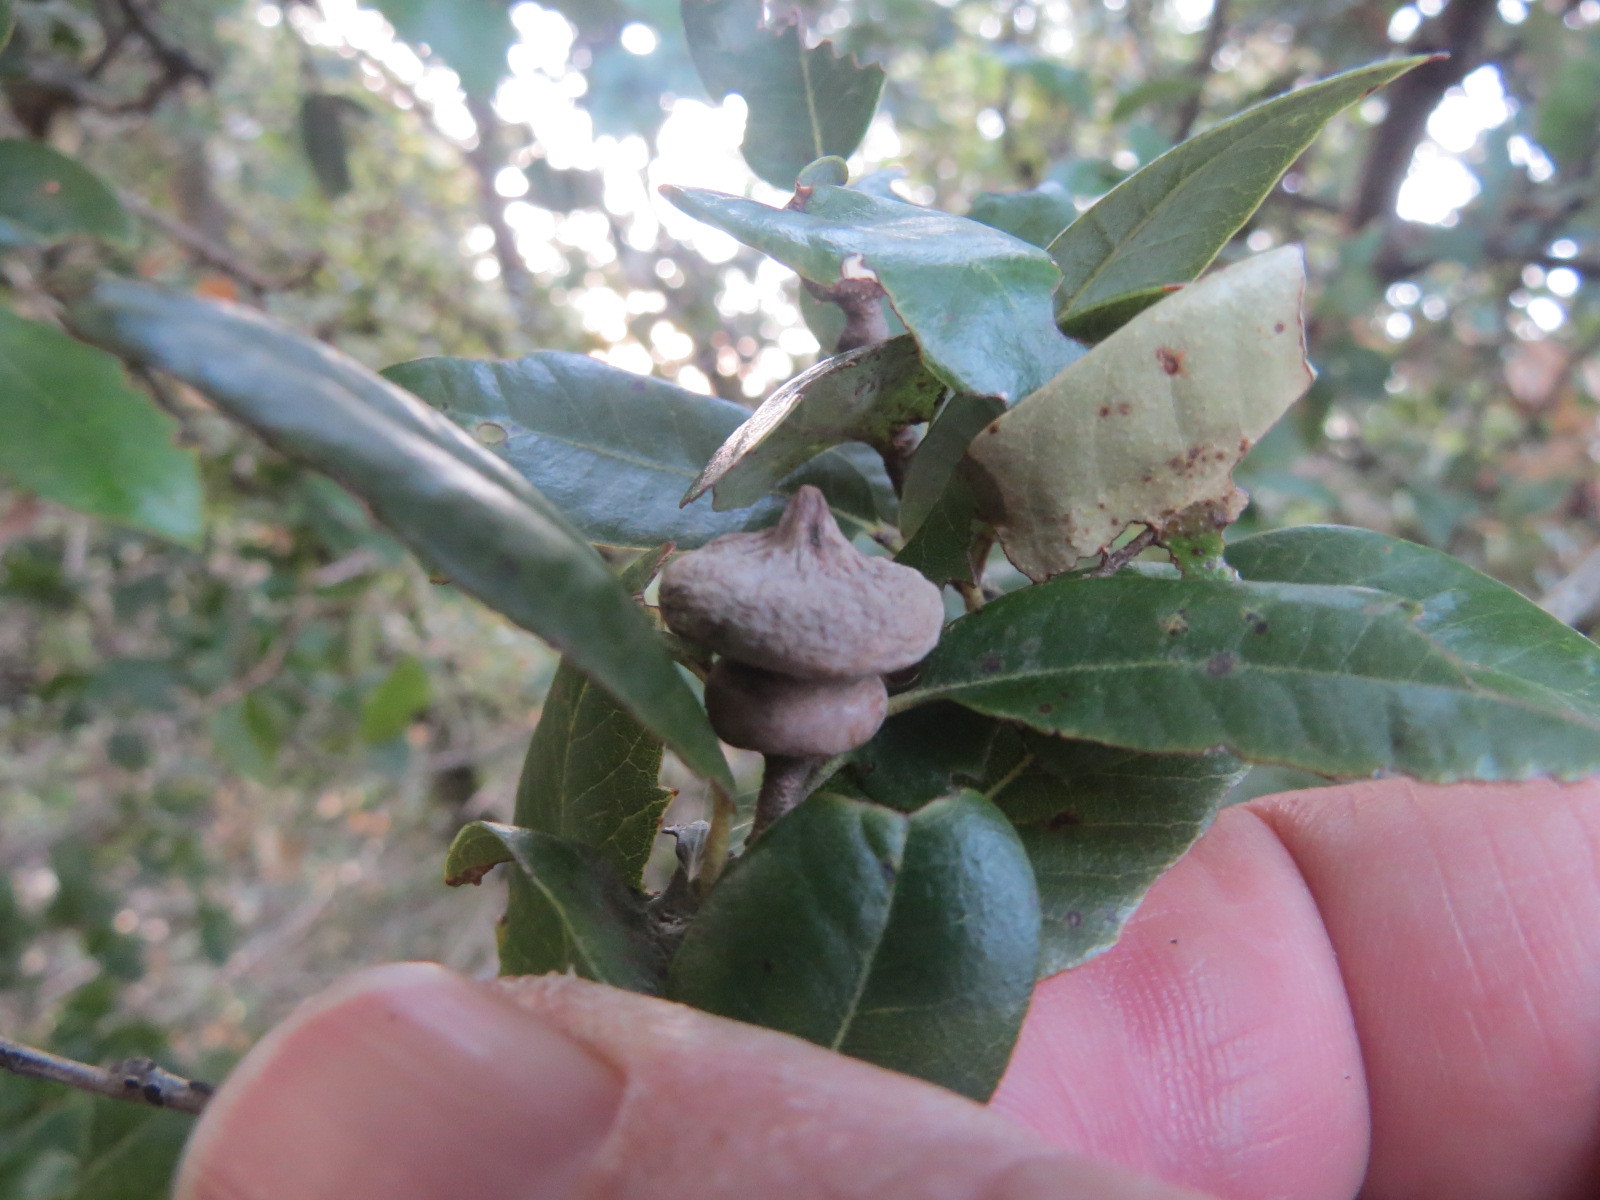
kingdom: Animalia
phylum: Arthropoda
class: Insecta
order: Hymenoptera
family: Cynipidae
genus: Heteroecus
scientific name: Heteroecus
